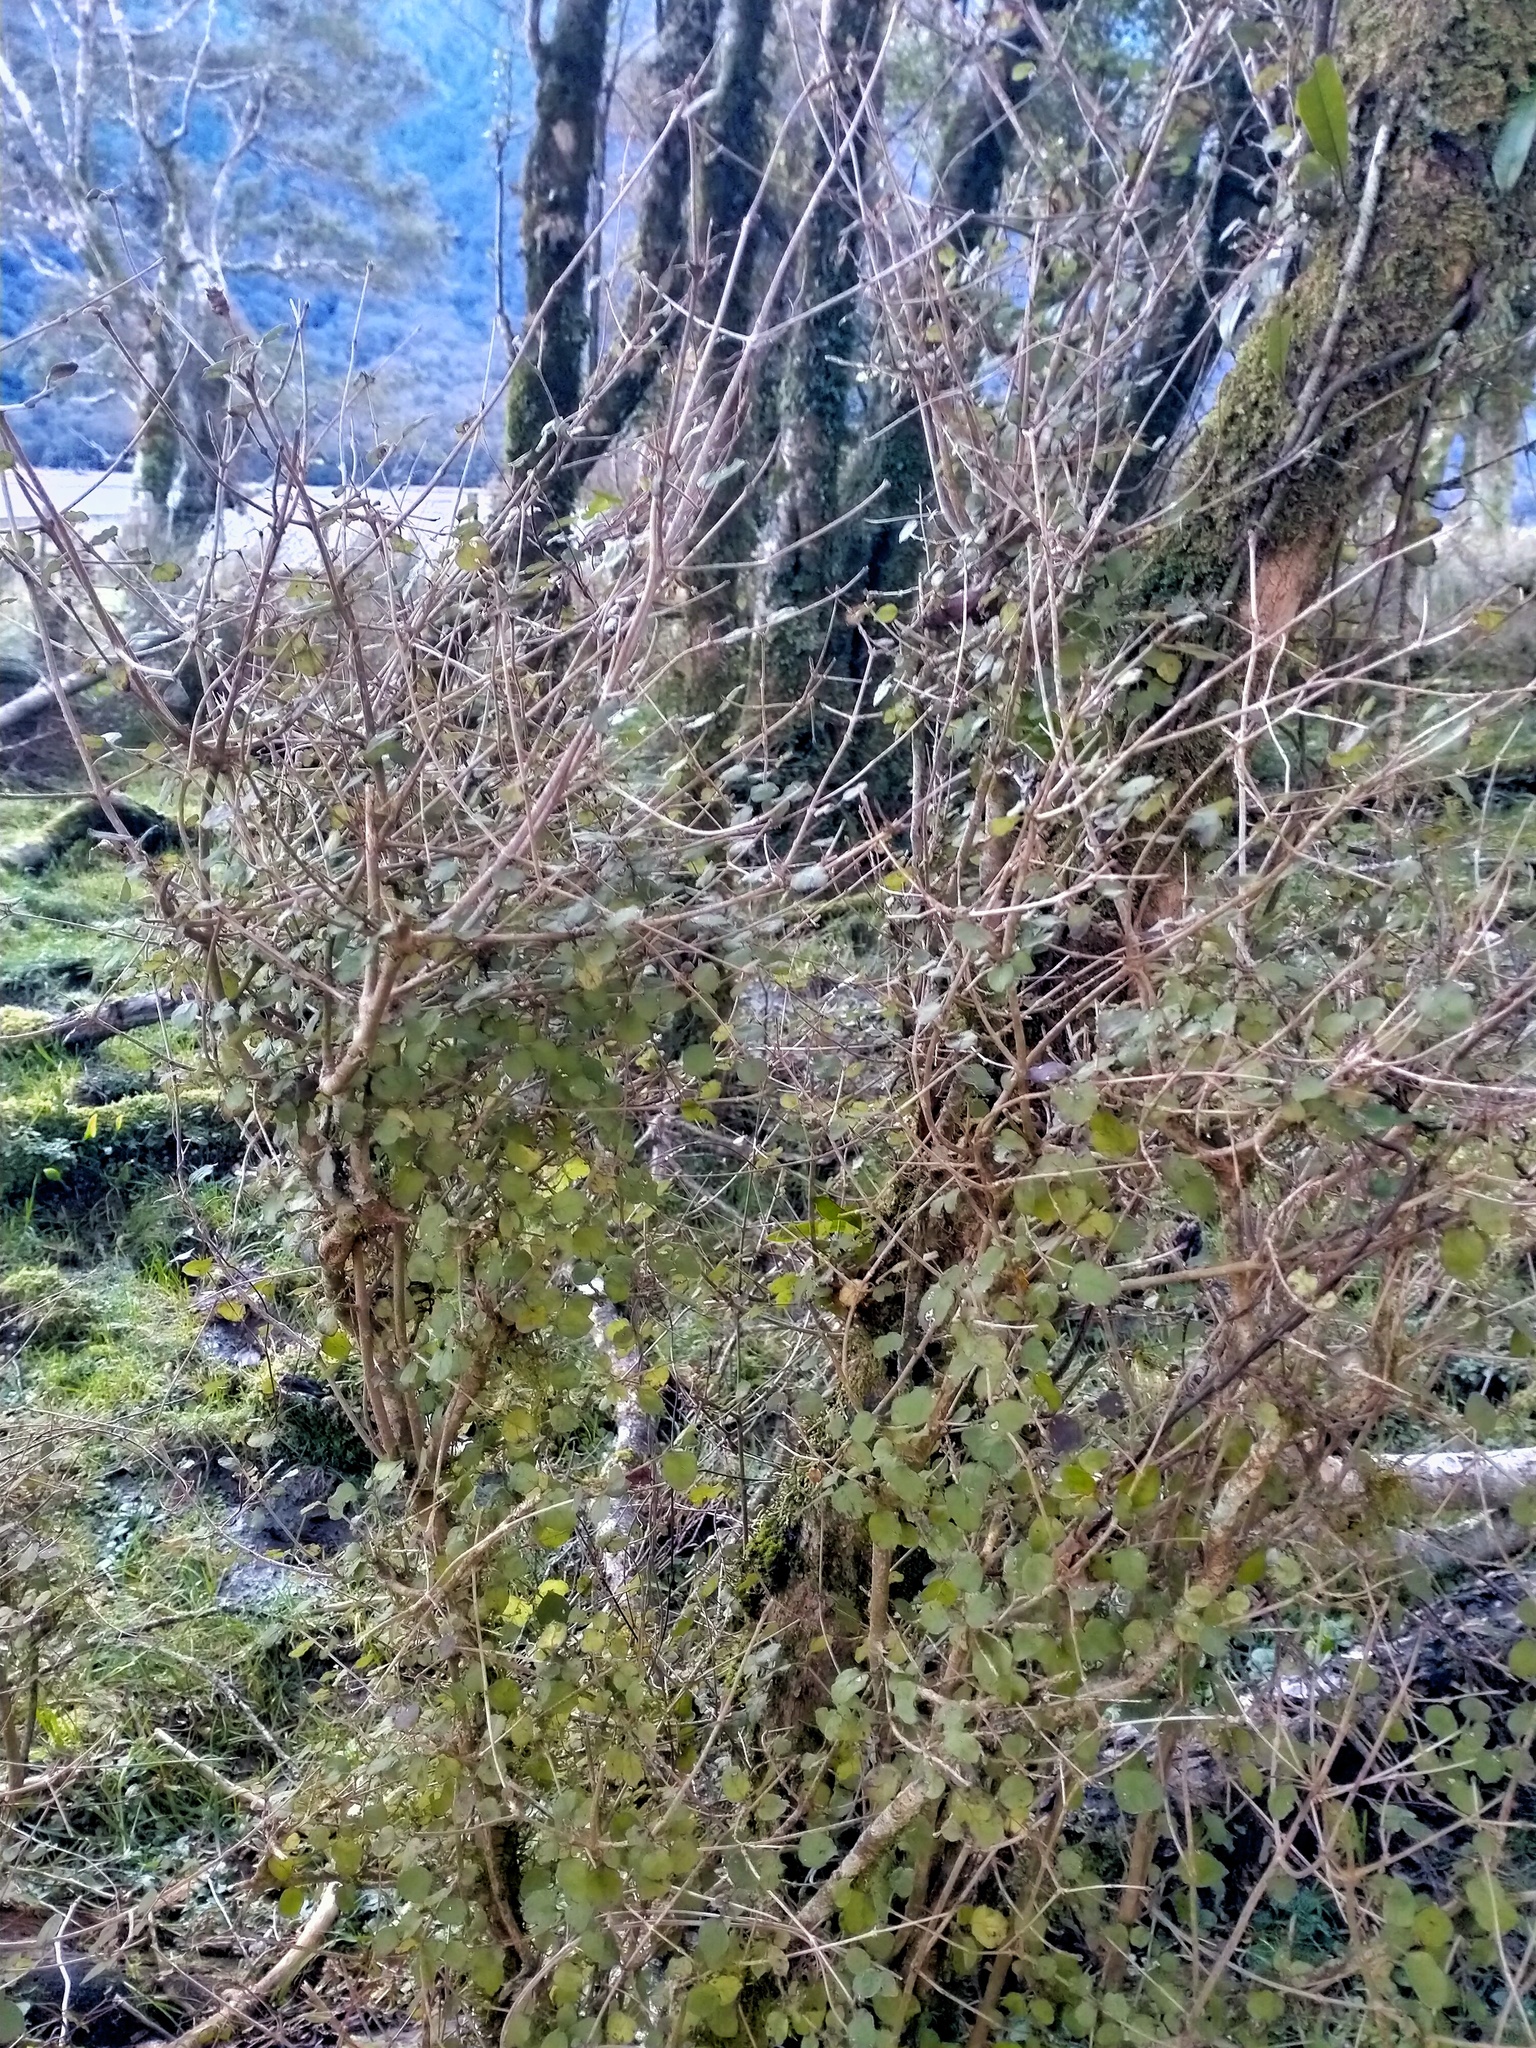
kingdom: Plantae
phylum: Tracheophyta
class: Magnoliopsida
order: Gentianales
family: Rubiaceae
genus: Coprosma
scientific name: Coprosma rotundifolia
